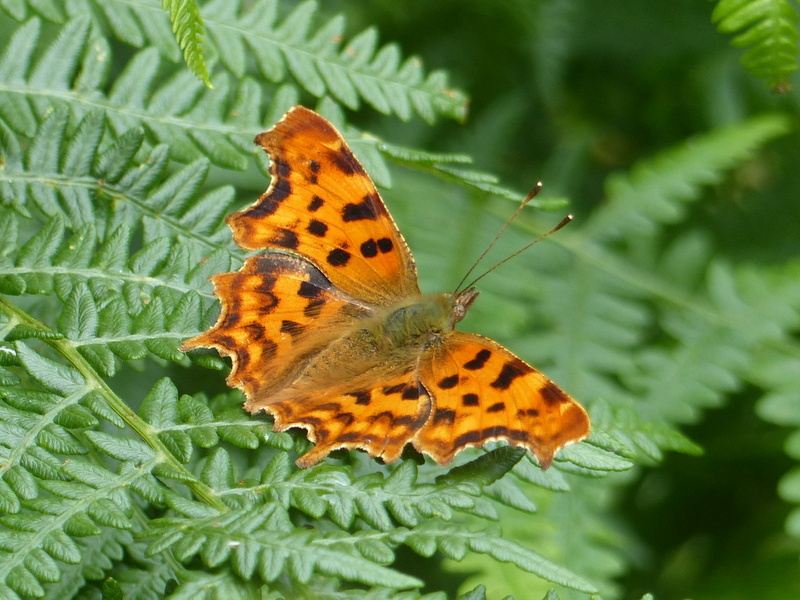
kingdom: Animalia
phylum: Arthropoda
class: Insecta
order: Lepidoptera
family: Nymphalidae
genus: Polygonia
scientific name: Polygonia c-album
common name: Comma
